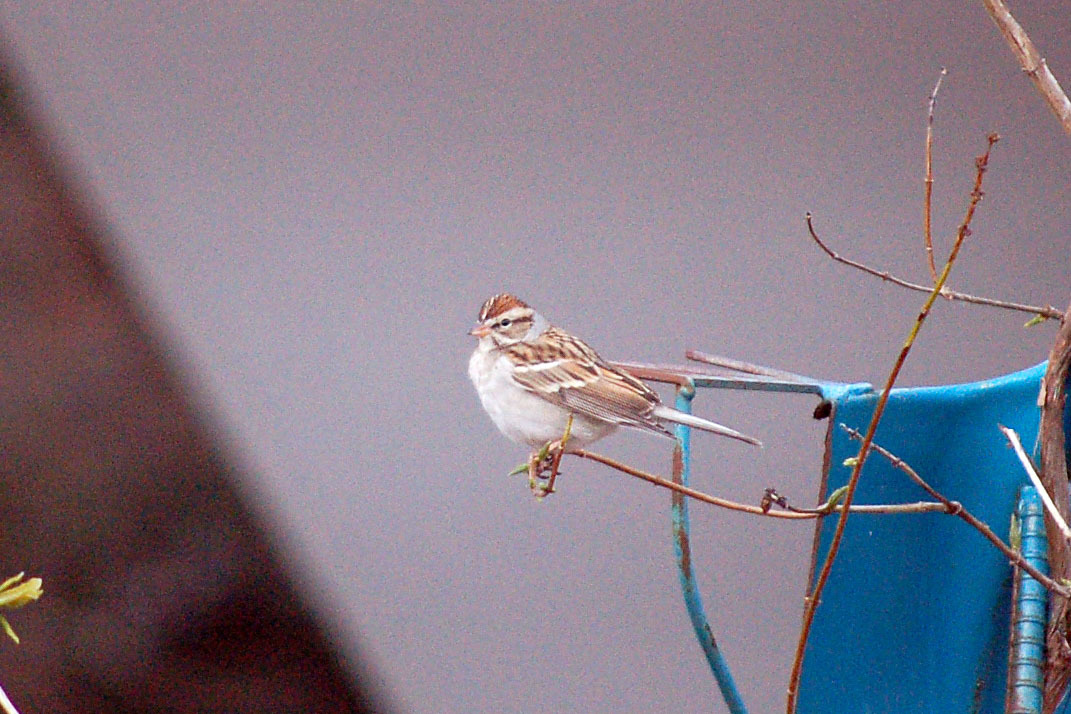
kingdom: Animalia
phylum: Chordata
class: Aves
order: Passeriformes
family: Passerellidae
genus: Spizella
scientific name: Spizella passerina
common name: Chipping sparrow
